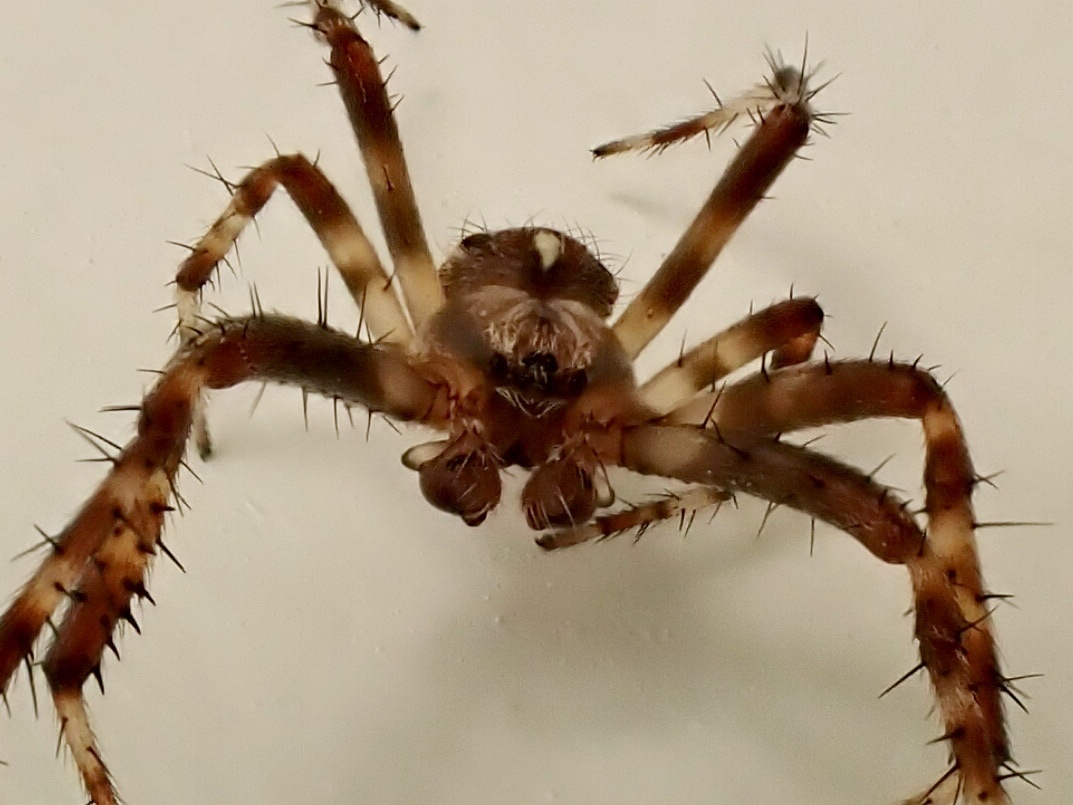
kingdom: Animalia
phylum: Arthropoda
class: Arachnida
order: Araneae
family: Araneidae
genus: Araneus
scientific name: Araneus diadematus
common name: Cross orbweaver
